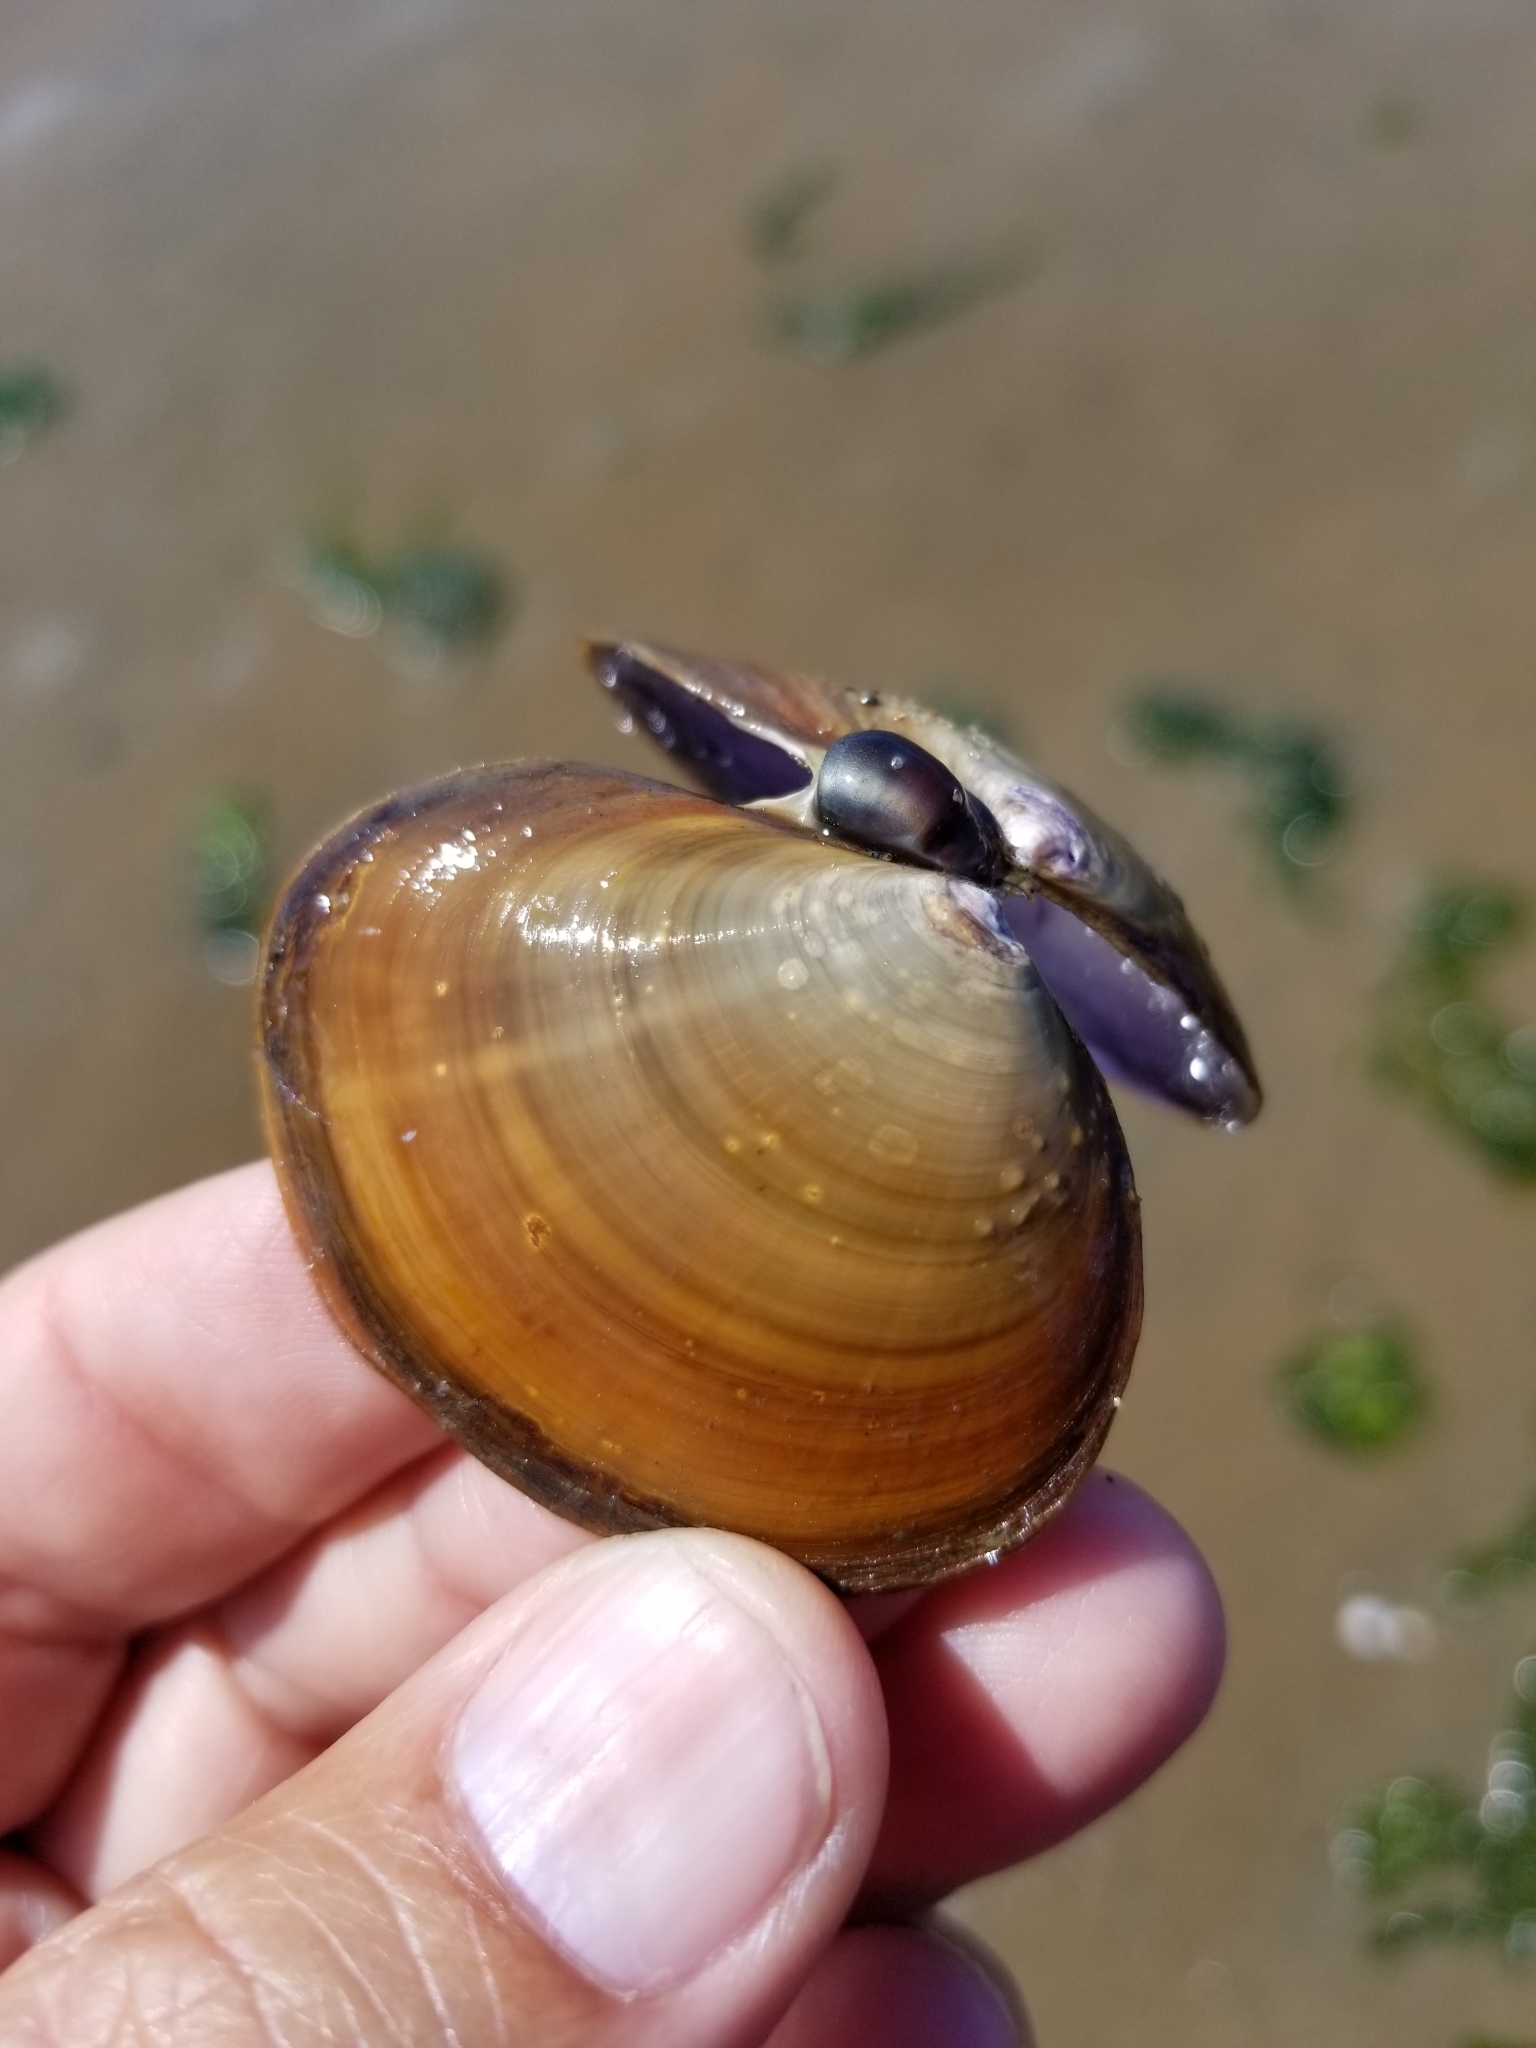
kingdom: Animalia
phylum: Mollusca
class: Bivalvia
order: Cardiida
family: Psammobiidae
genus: Nuttallia
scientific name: Nuttallia obscurata
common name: Purple mahogany-clam
